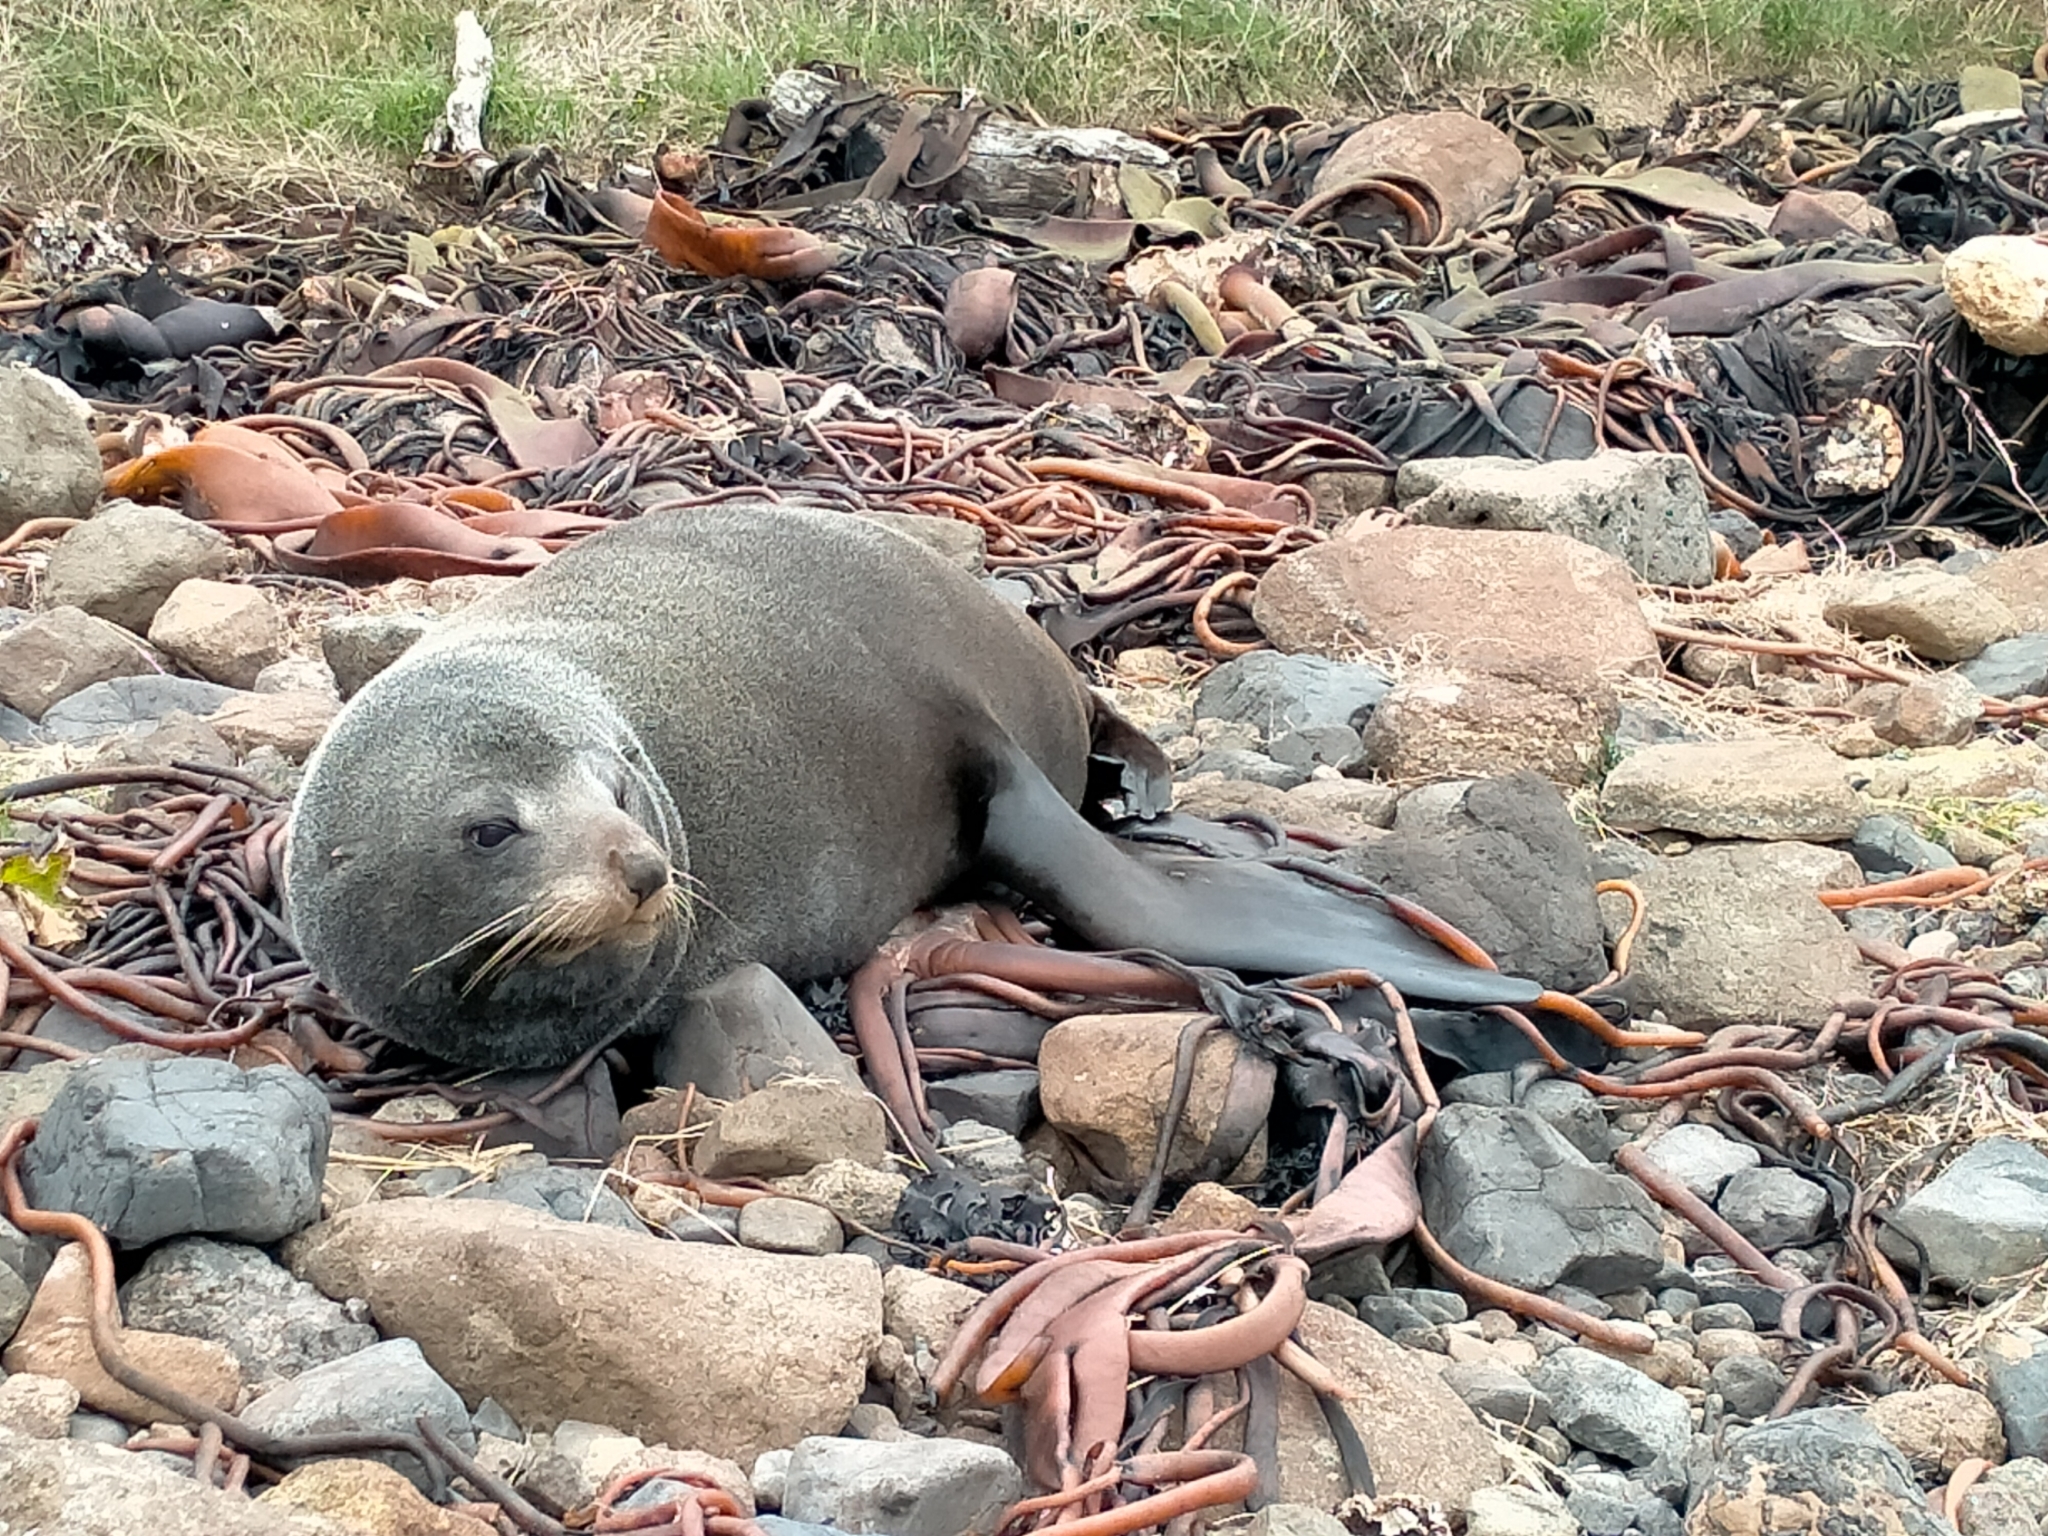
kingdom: Animalia
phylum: Chordata
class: Mammalia
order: Carnivora
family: Otariidae
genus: Arctocephalus
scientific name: Arctocephalus forsteri
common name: New zealand fur seal
